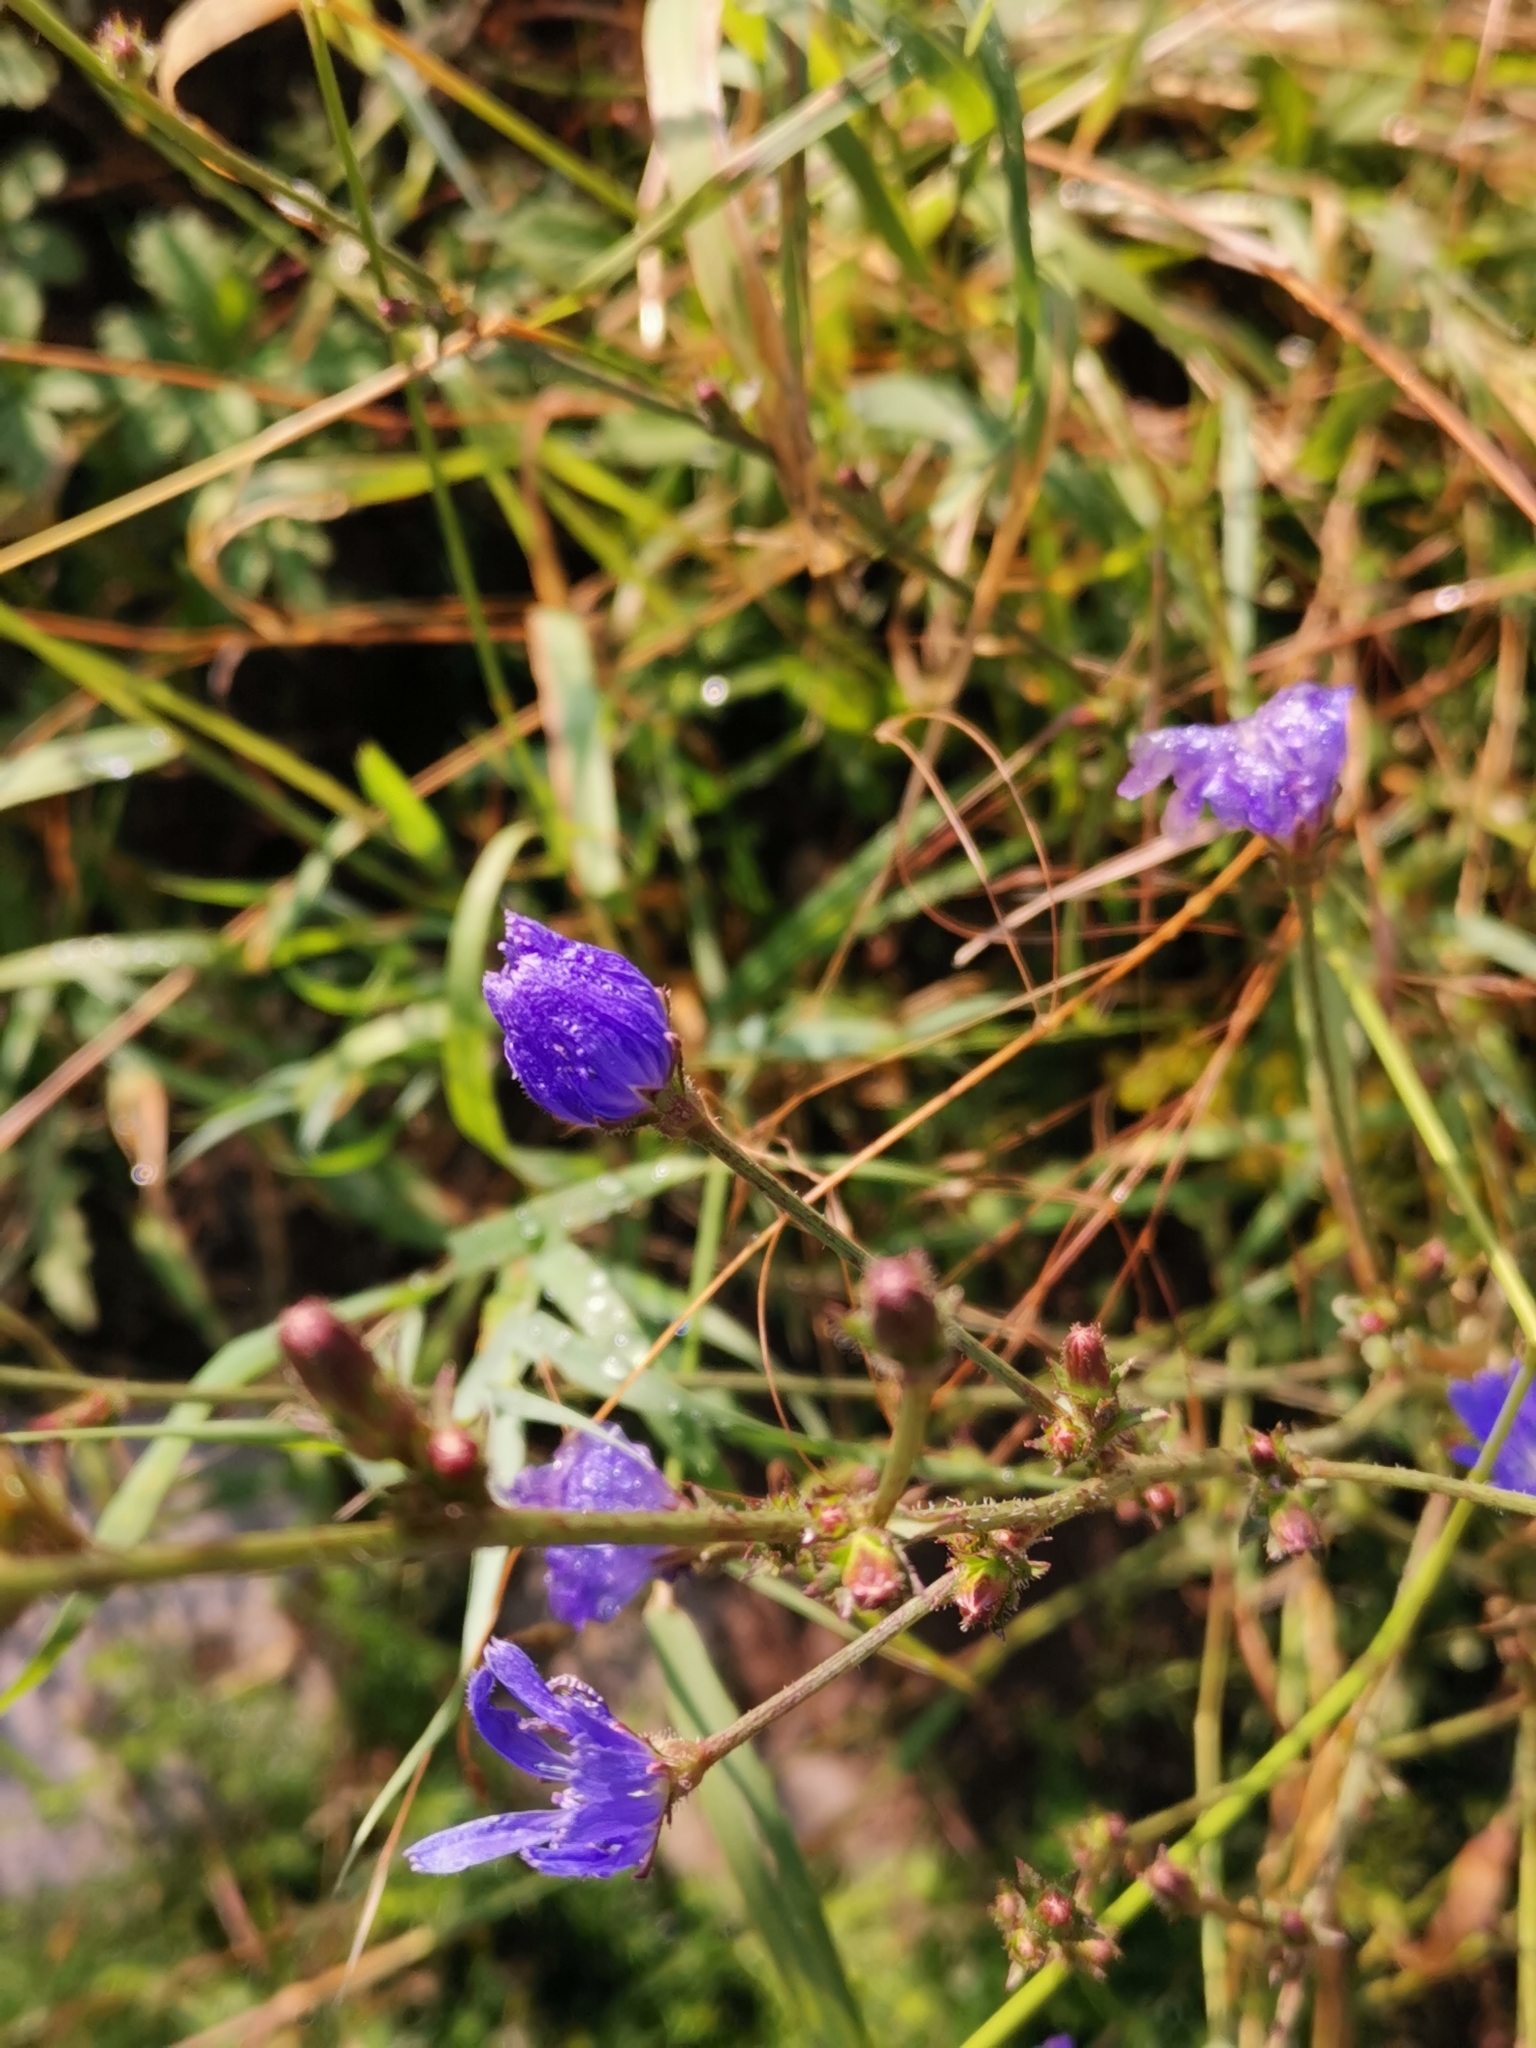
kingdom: Plantae
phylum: Tracheophyta
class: Magnoliopsida
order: Asterales
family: Asteraceae
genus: Cichorium
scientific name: Cichorium intybus
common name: Chicory
